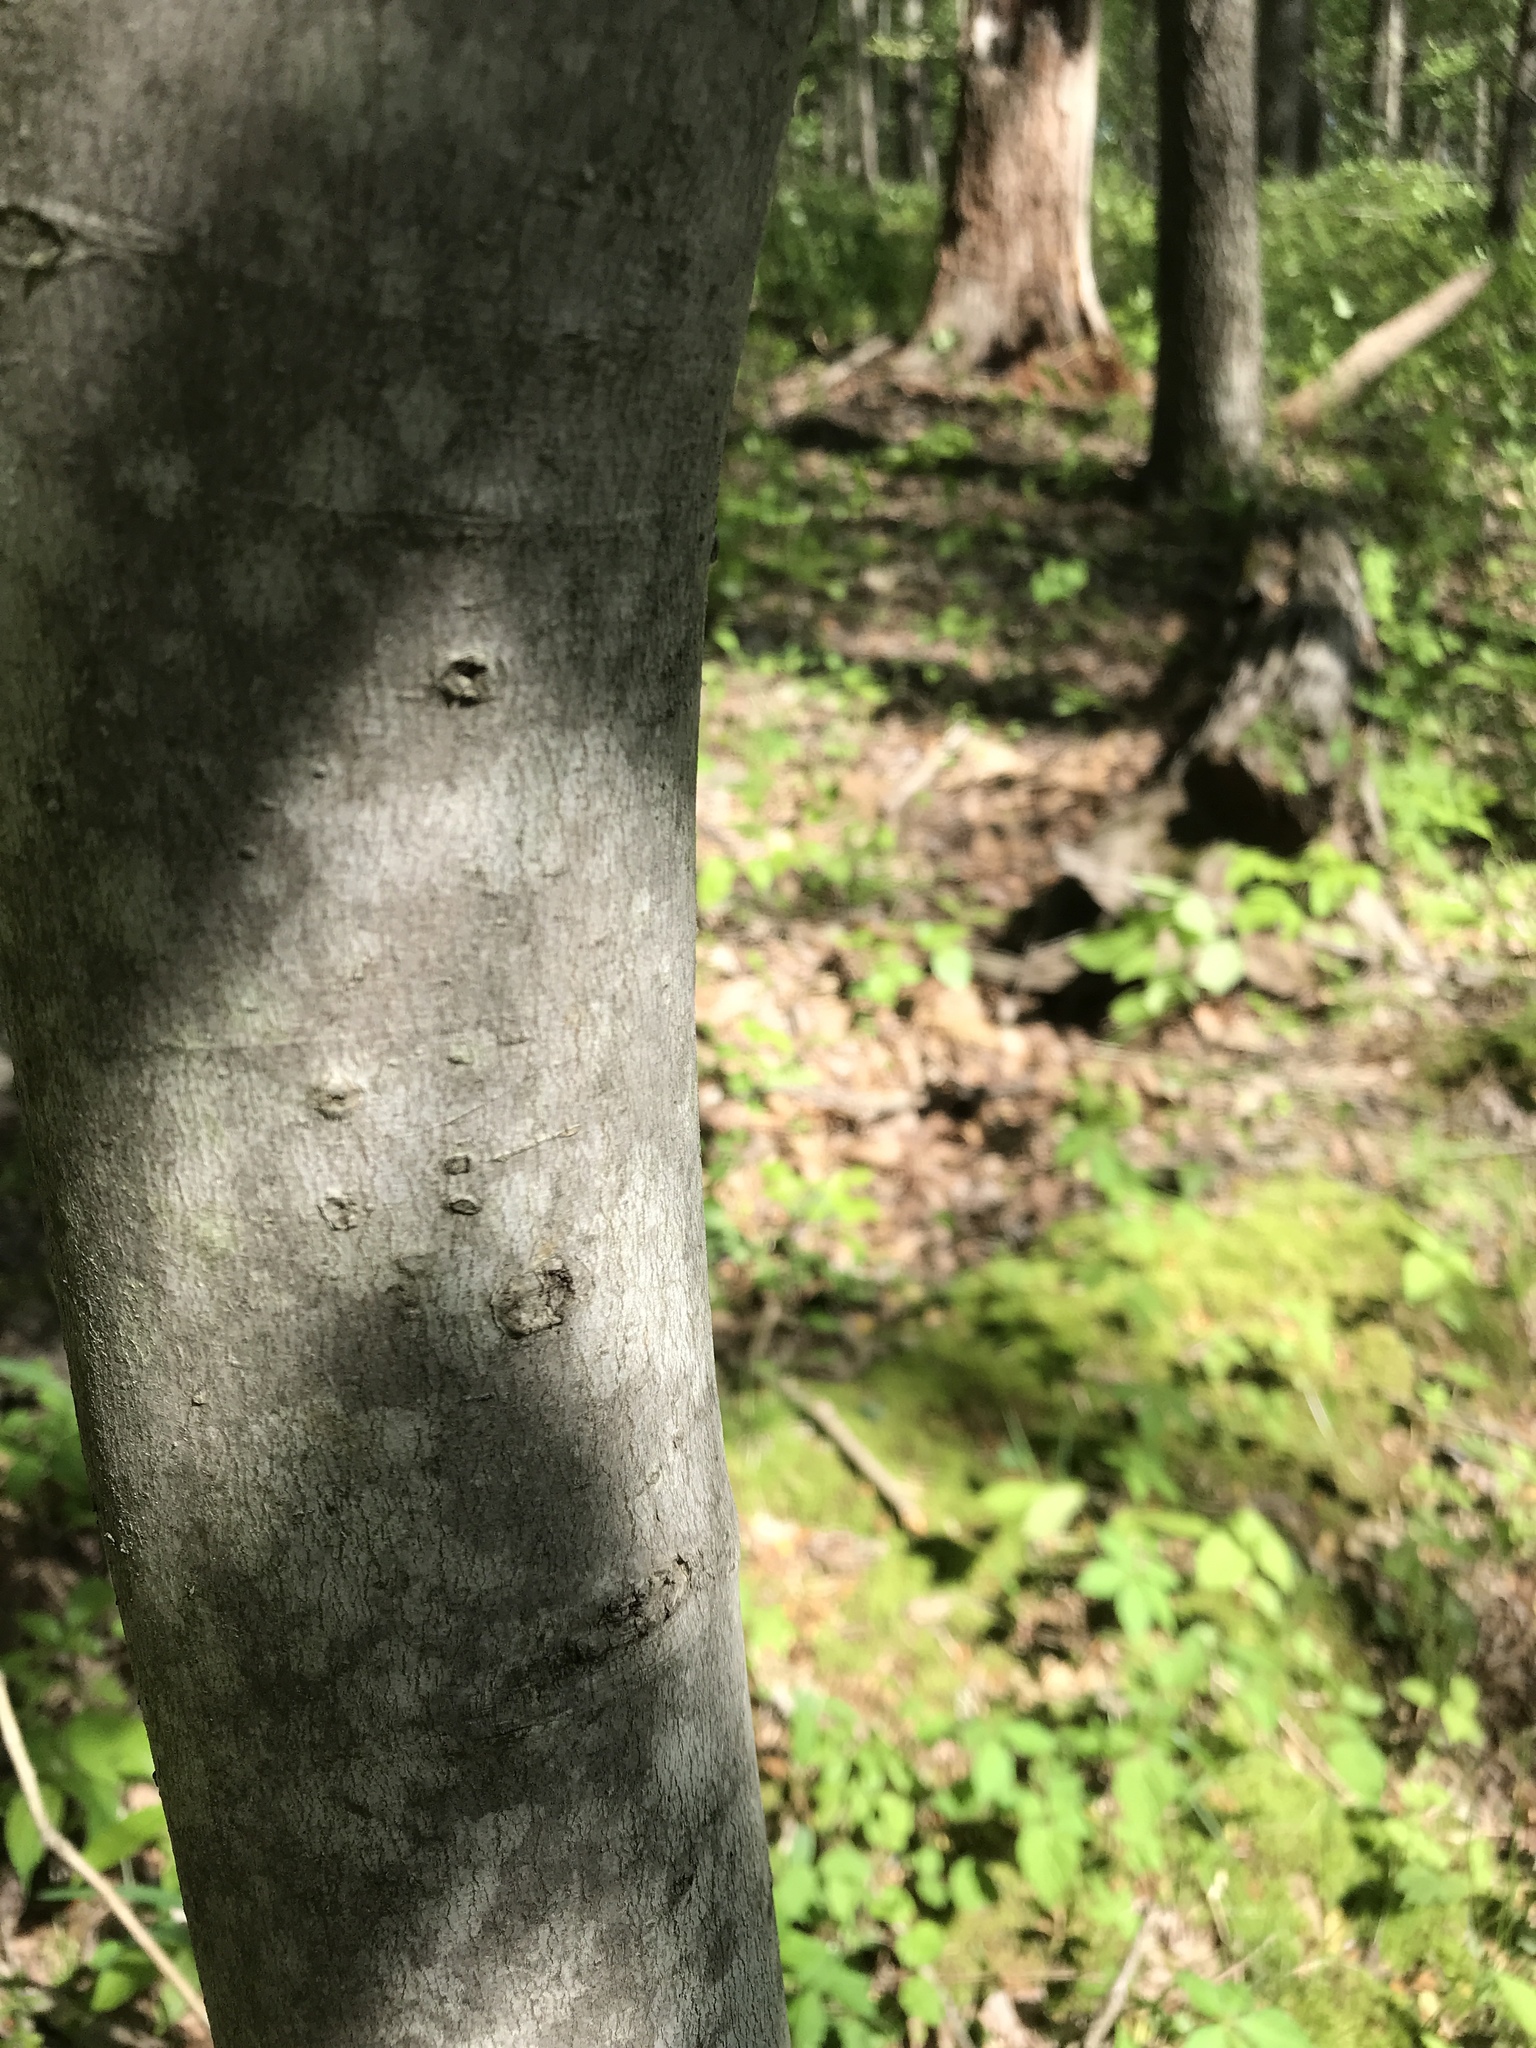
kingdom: Plantae
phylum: Tracheophyta
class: Magnoliopsida
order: Sapindales
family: Sapindaceae
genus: Acer
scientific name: Acer rubrum
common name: Red maple
